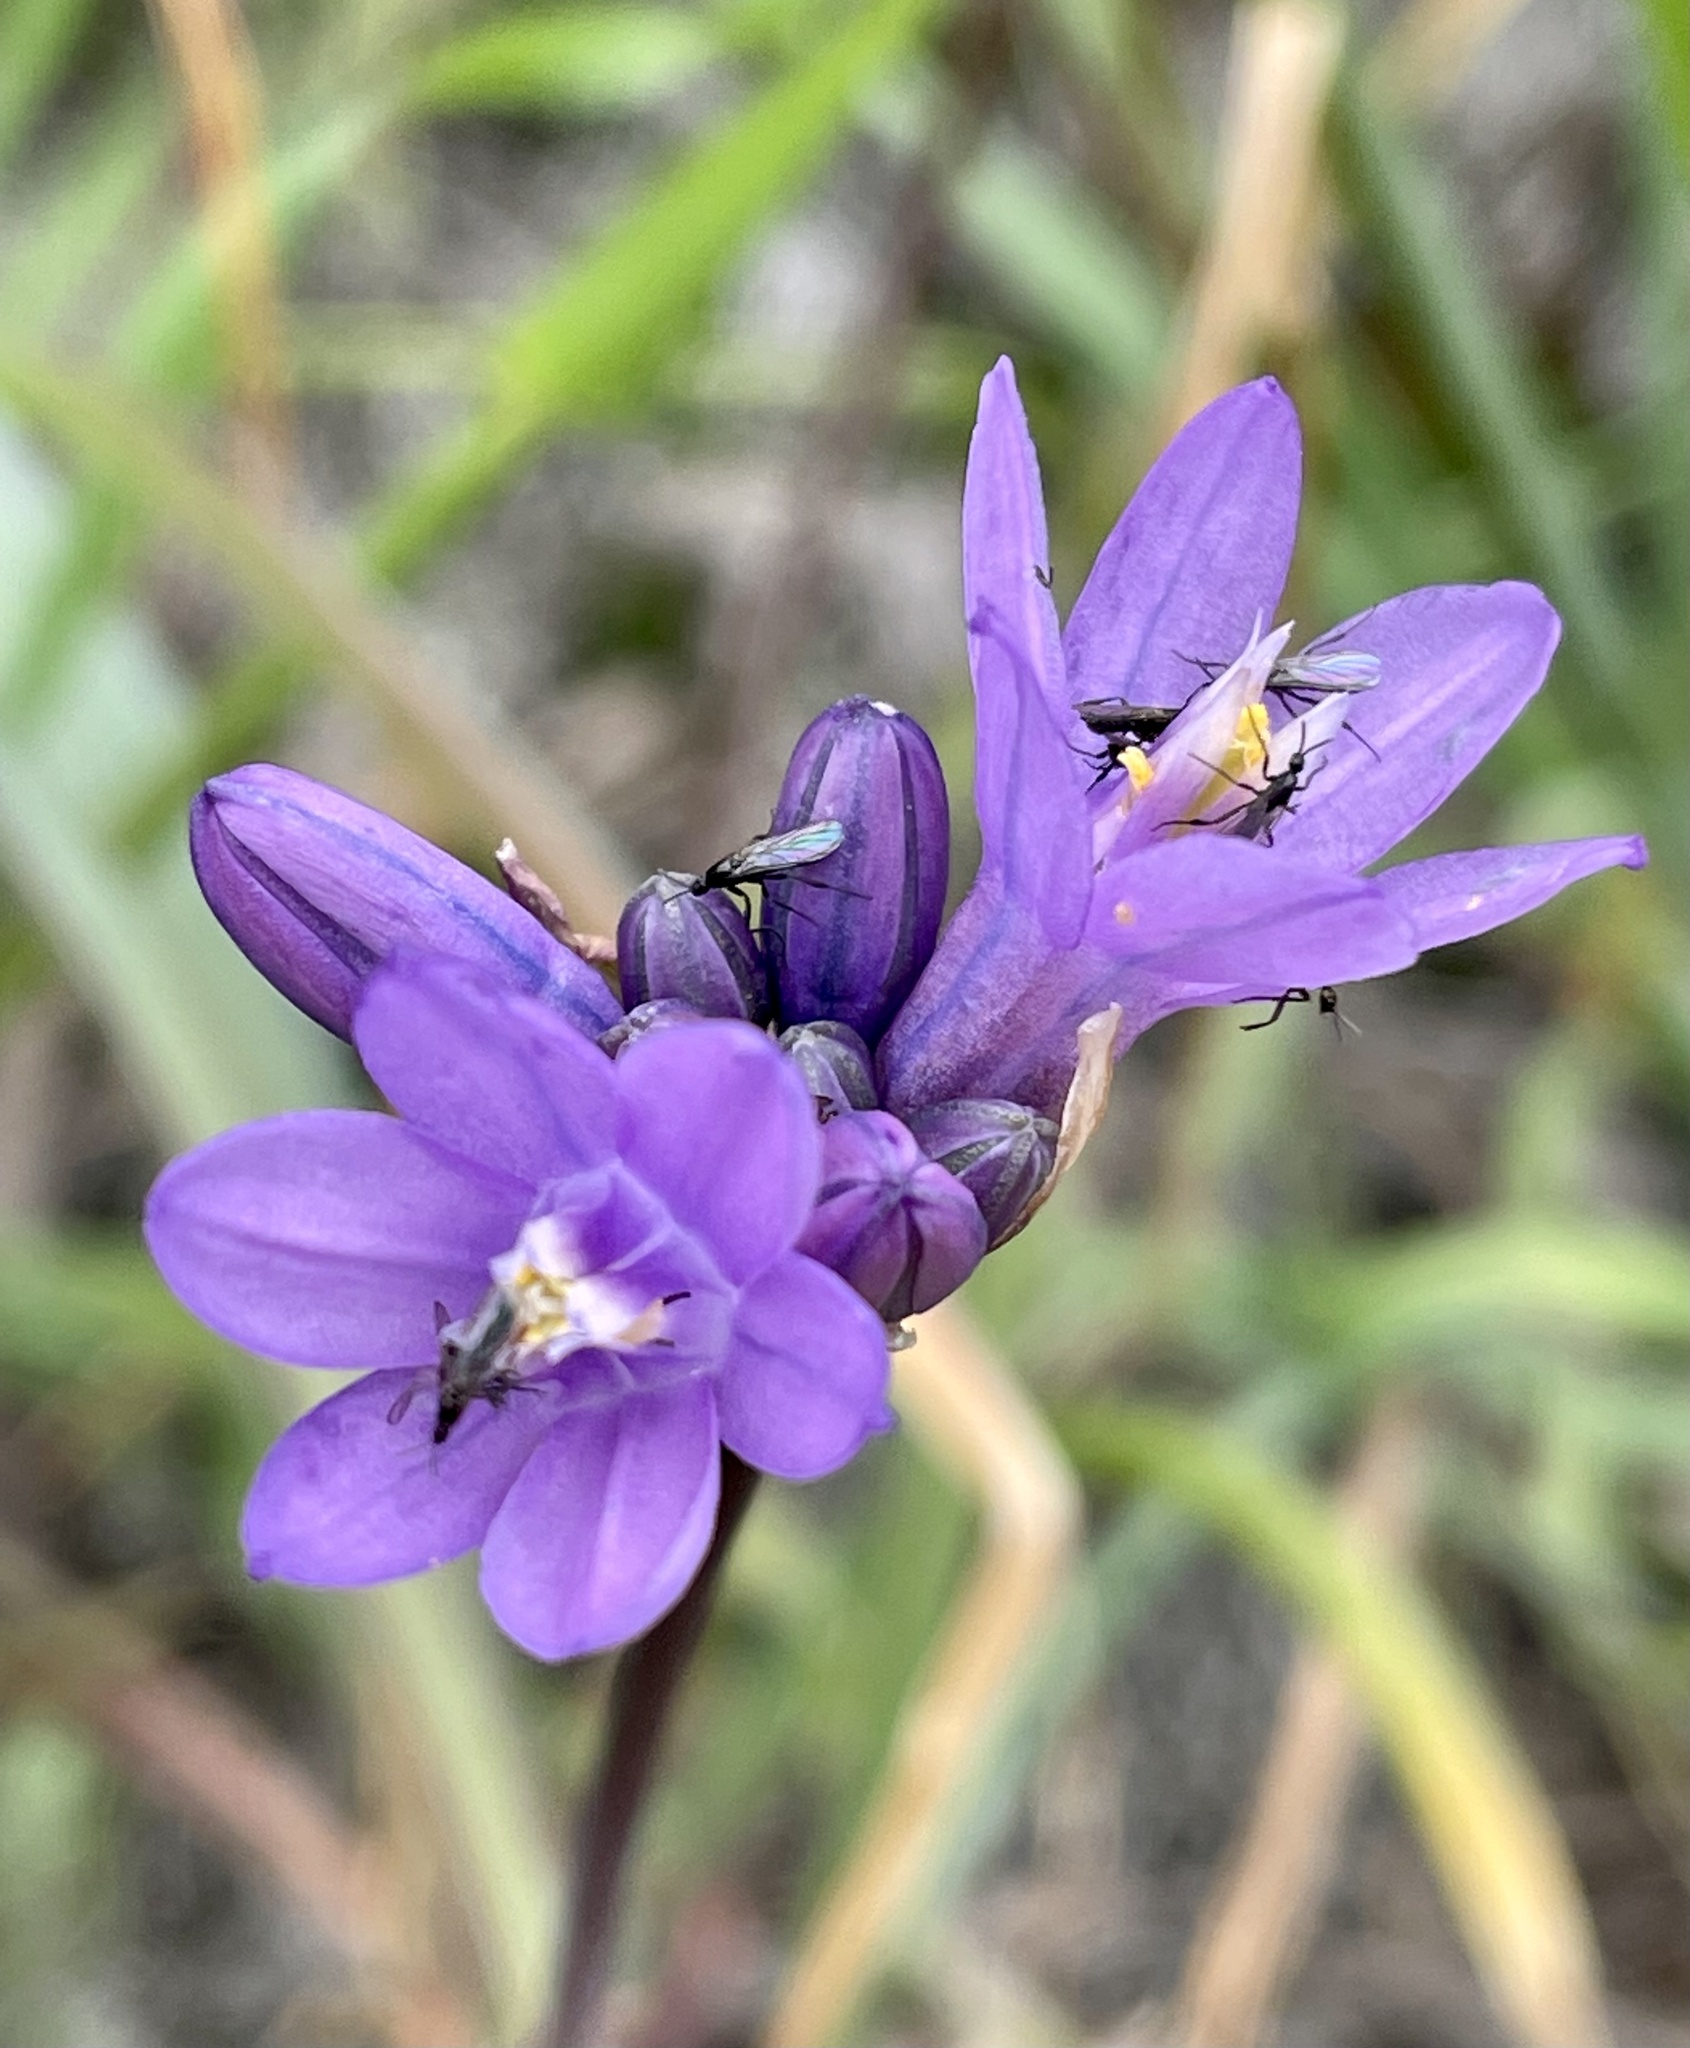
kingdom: Plantae
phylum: Tracheophyta
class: Liliopsida
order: Asparagales
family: Asparagaceae
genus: Dipterostemon
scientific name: Dipterostemon capitatus
